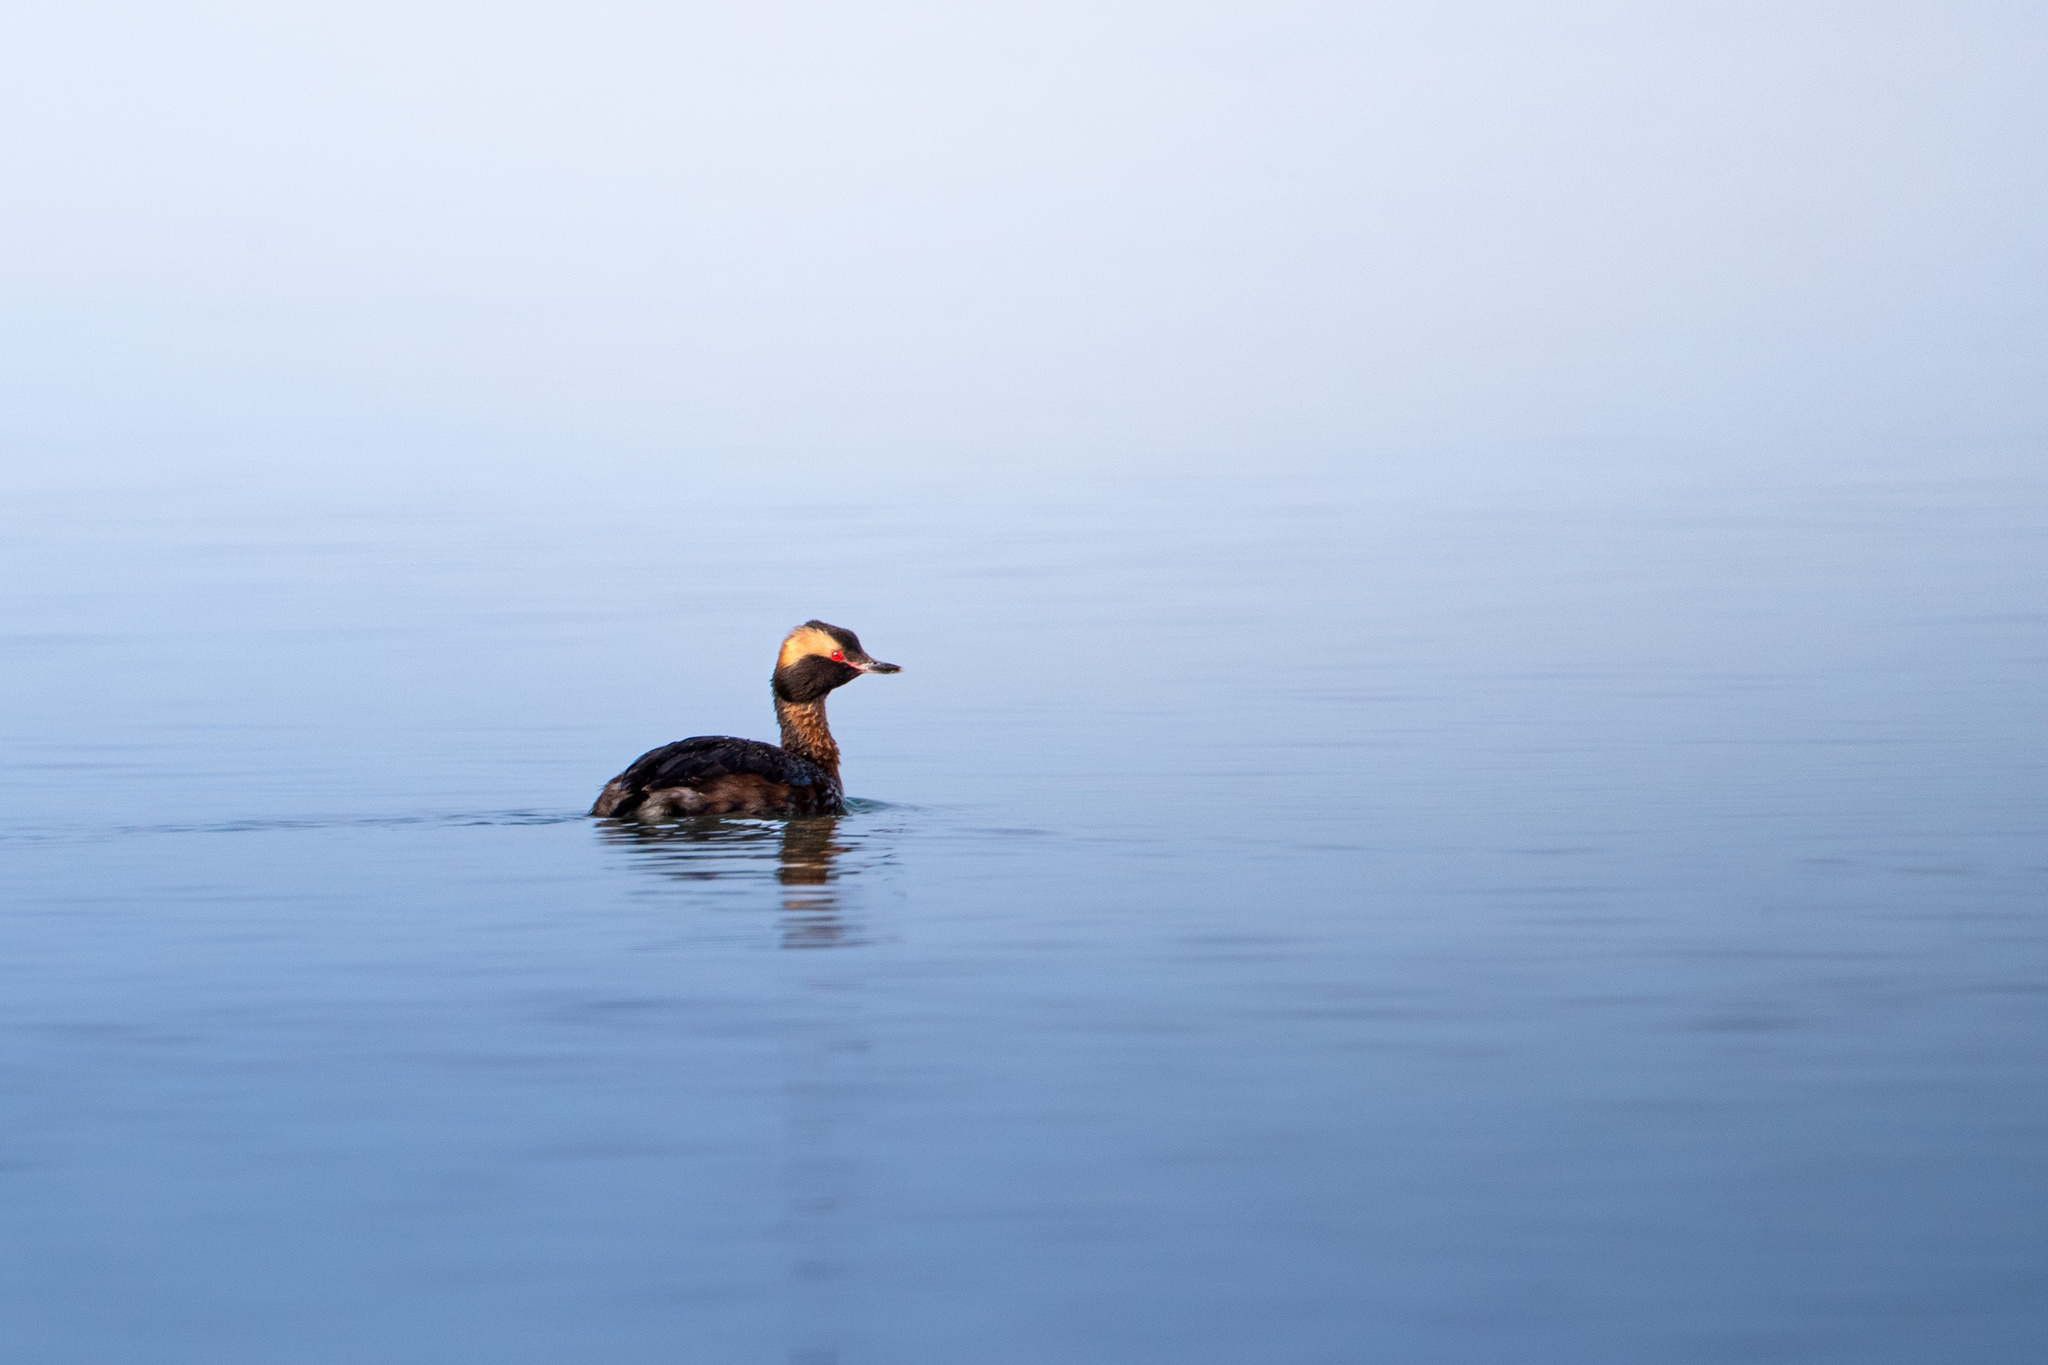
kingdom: Animalia
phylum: Chordata
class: Aves
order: Podicipediformes
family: Podicipedidae
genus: Podiceps
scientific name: Podiceps auritus
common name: Horned grebe
